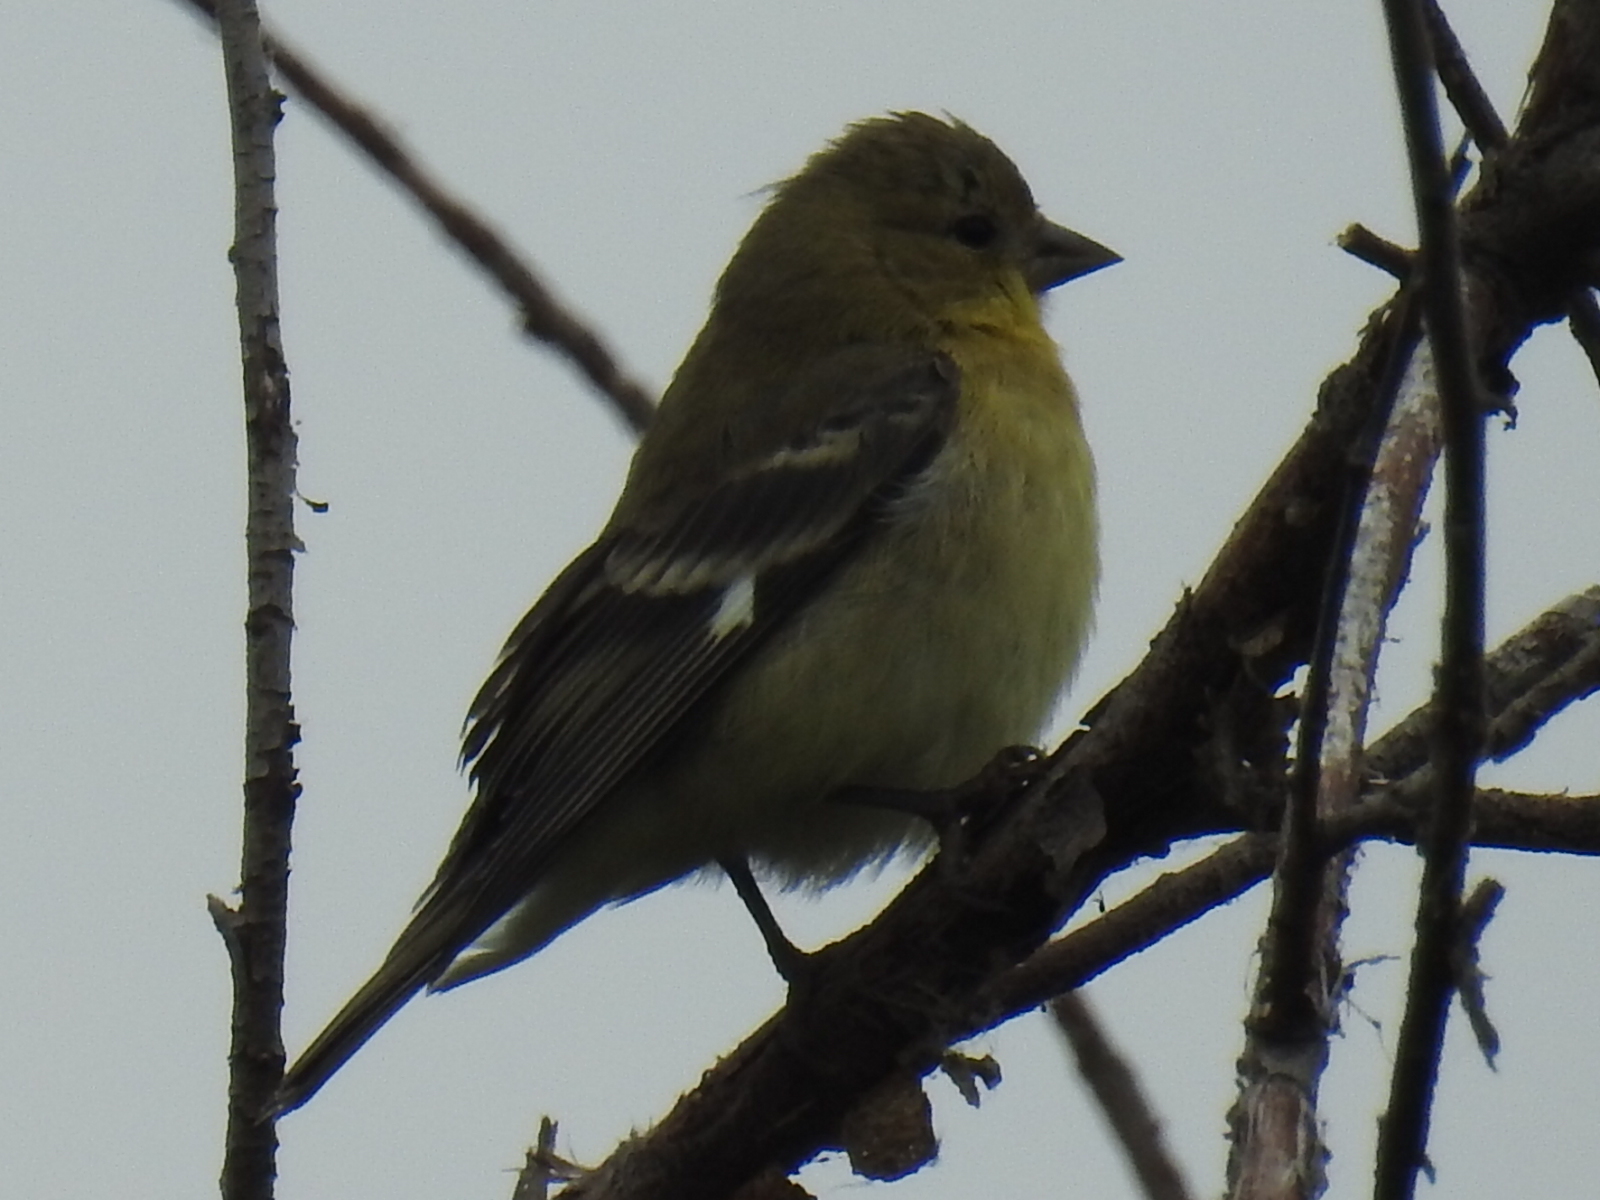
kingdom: Animalia
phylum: Chordata
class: Aves
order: Passeriformes
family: Fringillidae
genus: Spinus
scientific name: Spinus psaltria
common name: Lesser goldfinch
